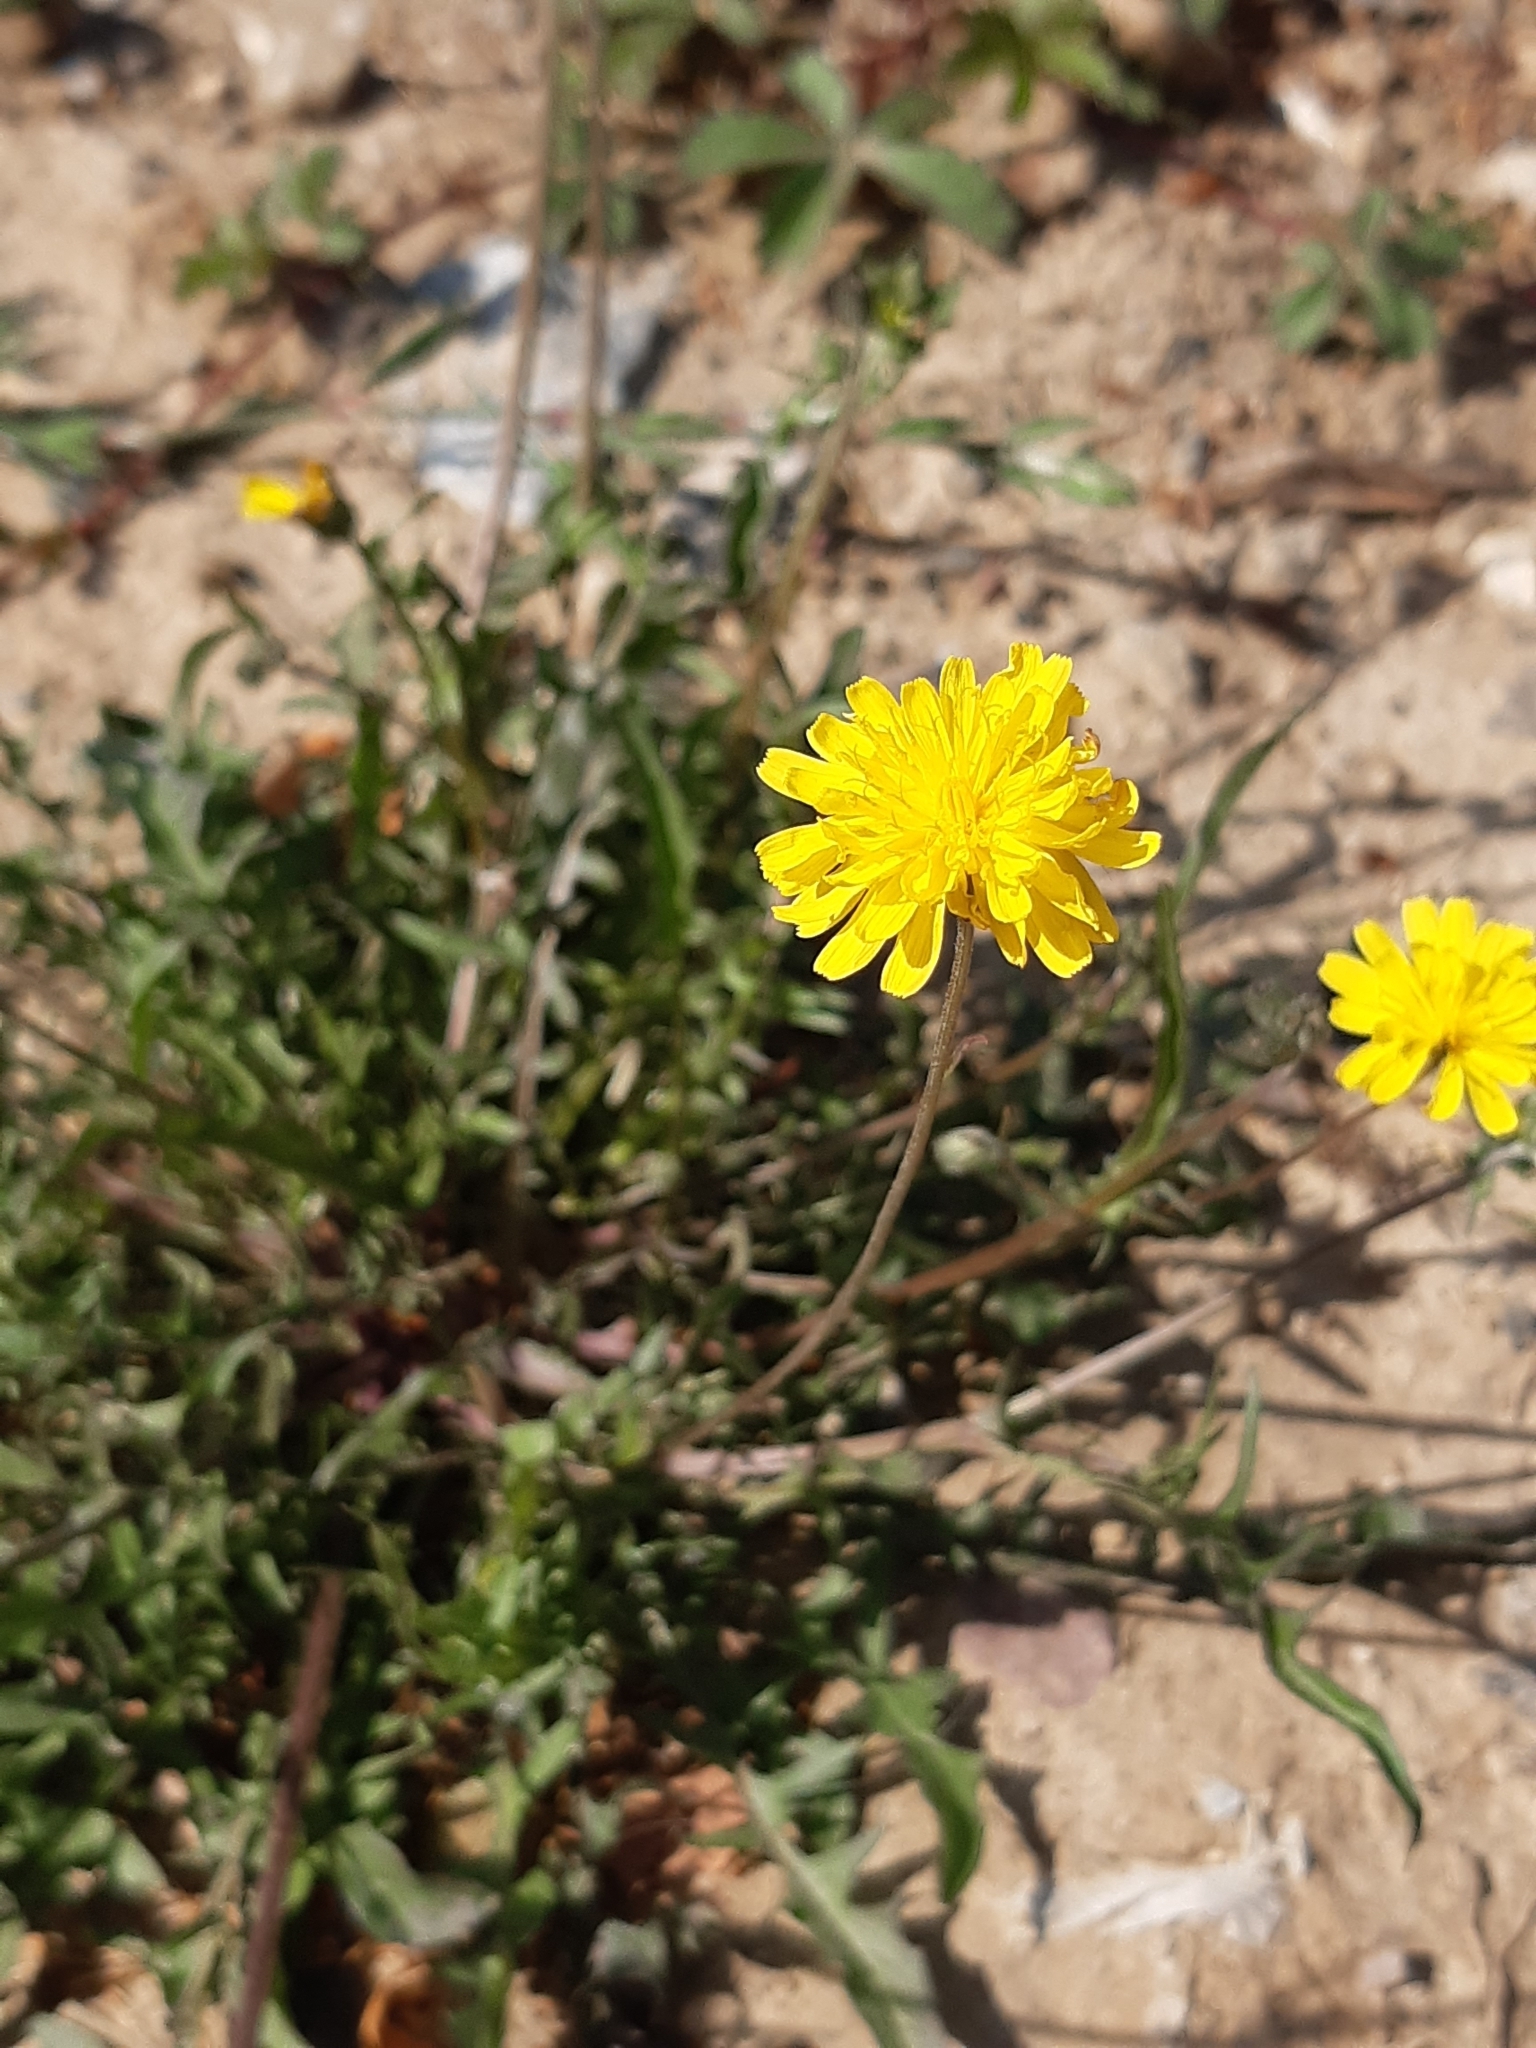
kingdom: Plantae
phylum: Tracheophyta
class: Magnoliopsida
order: Asterales
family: Asteraceae
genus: Crepis
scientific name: Crepis capillaris
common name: Smooth hawksbeard
